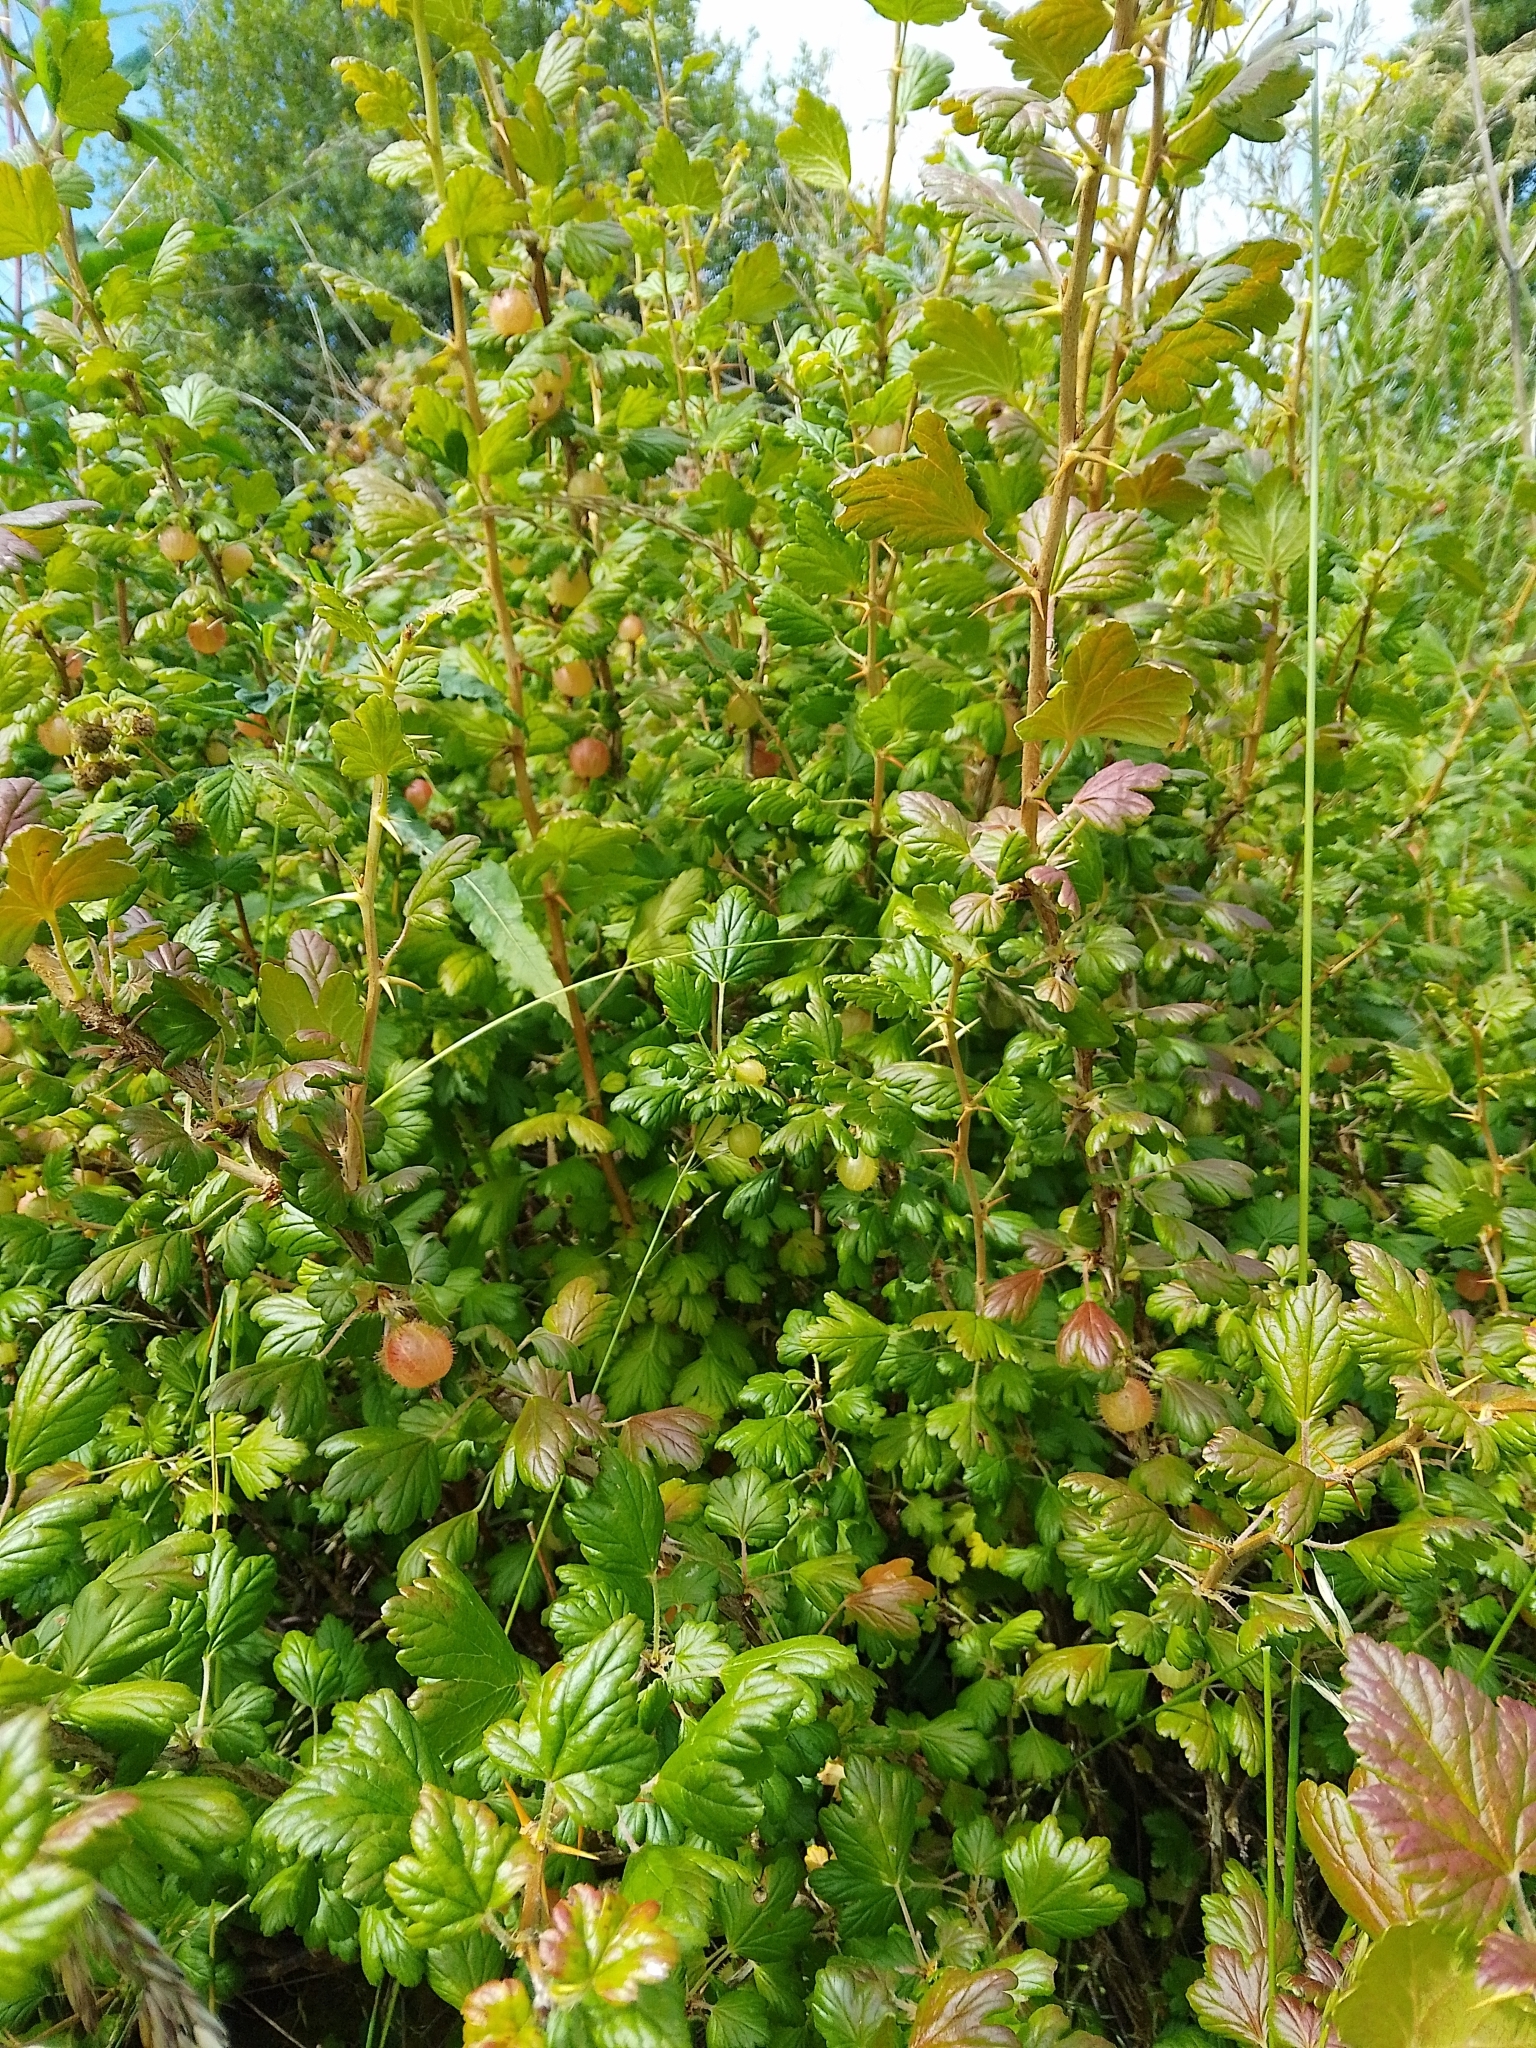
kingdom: Plantae
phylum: Tracheophyta
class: Magnoliopsida
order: Saxifragales
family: Grossulariaceae
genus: Ribes
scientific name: Ribes uva-crispa
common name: Gooseberry
